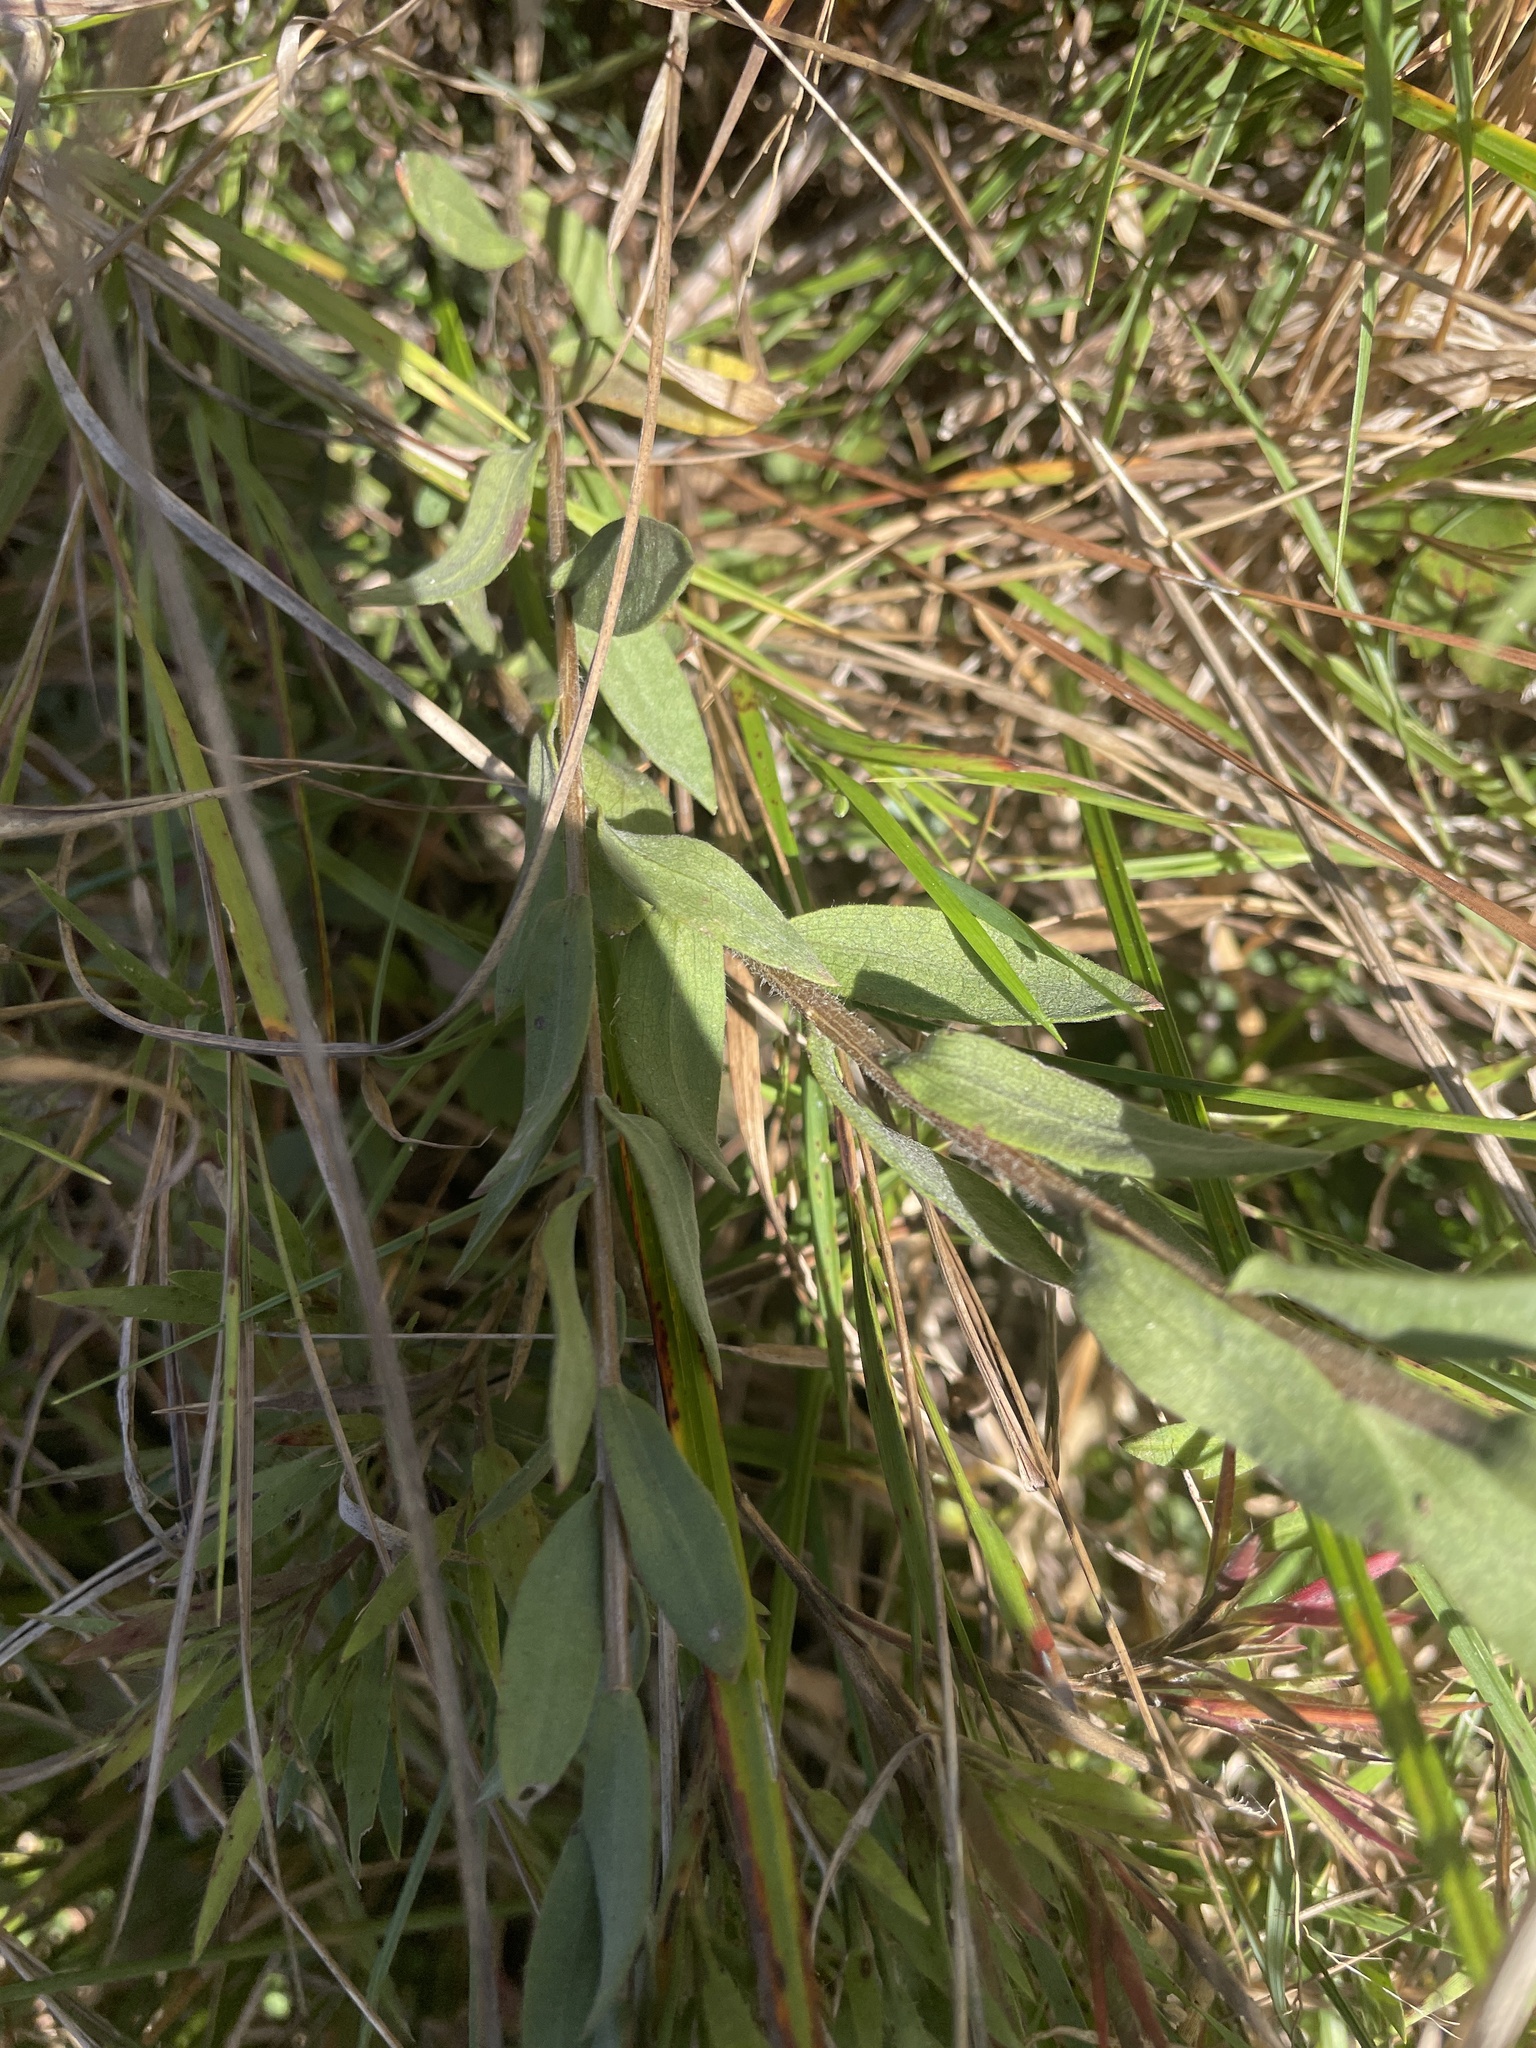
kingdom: Plantae
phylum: Tracheophyta
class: Magnoliopsida
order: Asterales
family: Asteraceae
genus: Symphyotrichum
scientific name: Symphyotrichum concolor
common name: Eastern silver aster
